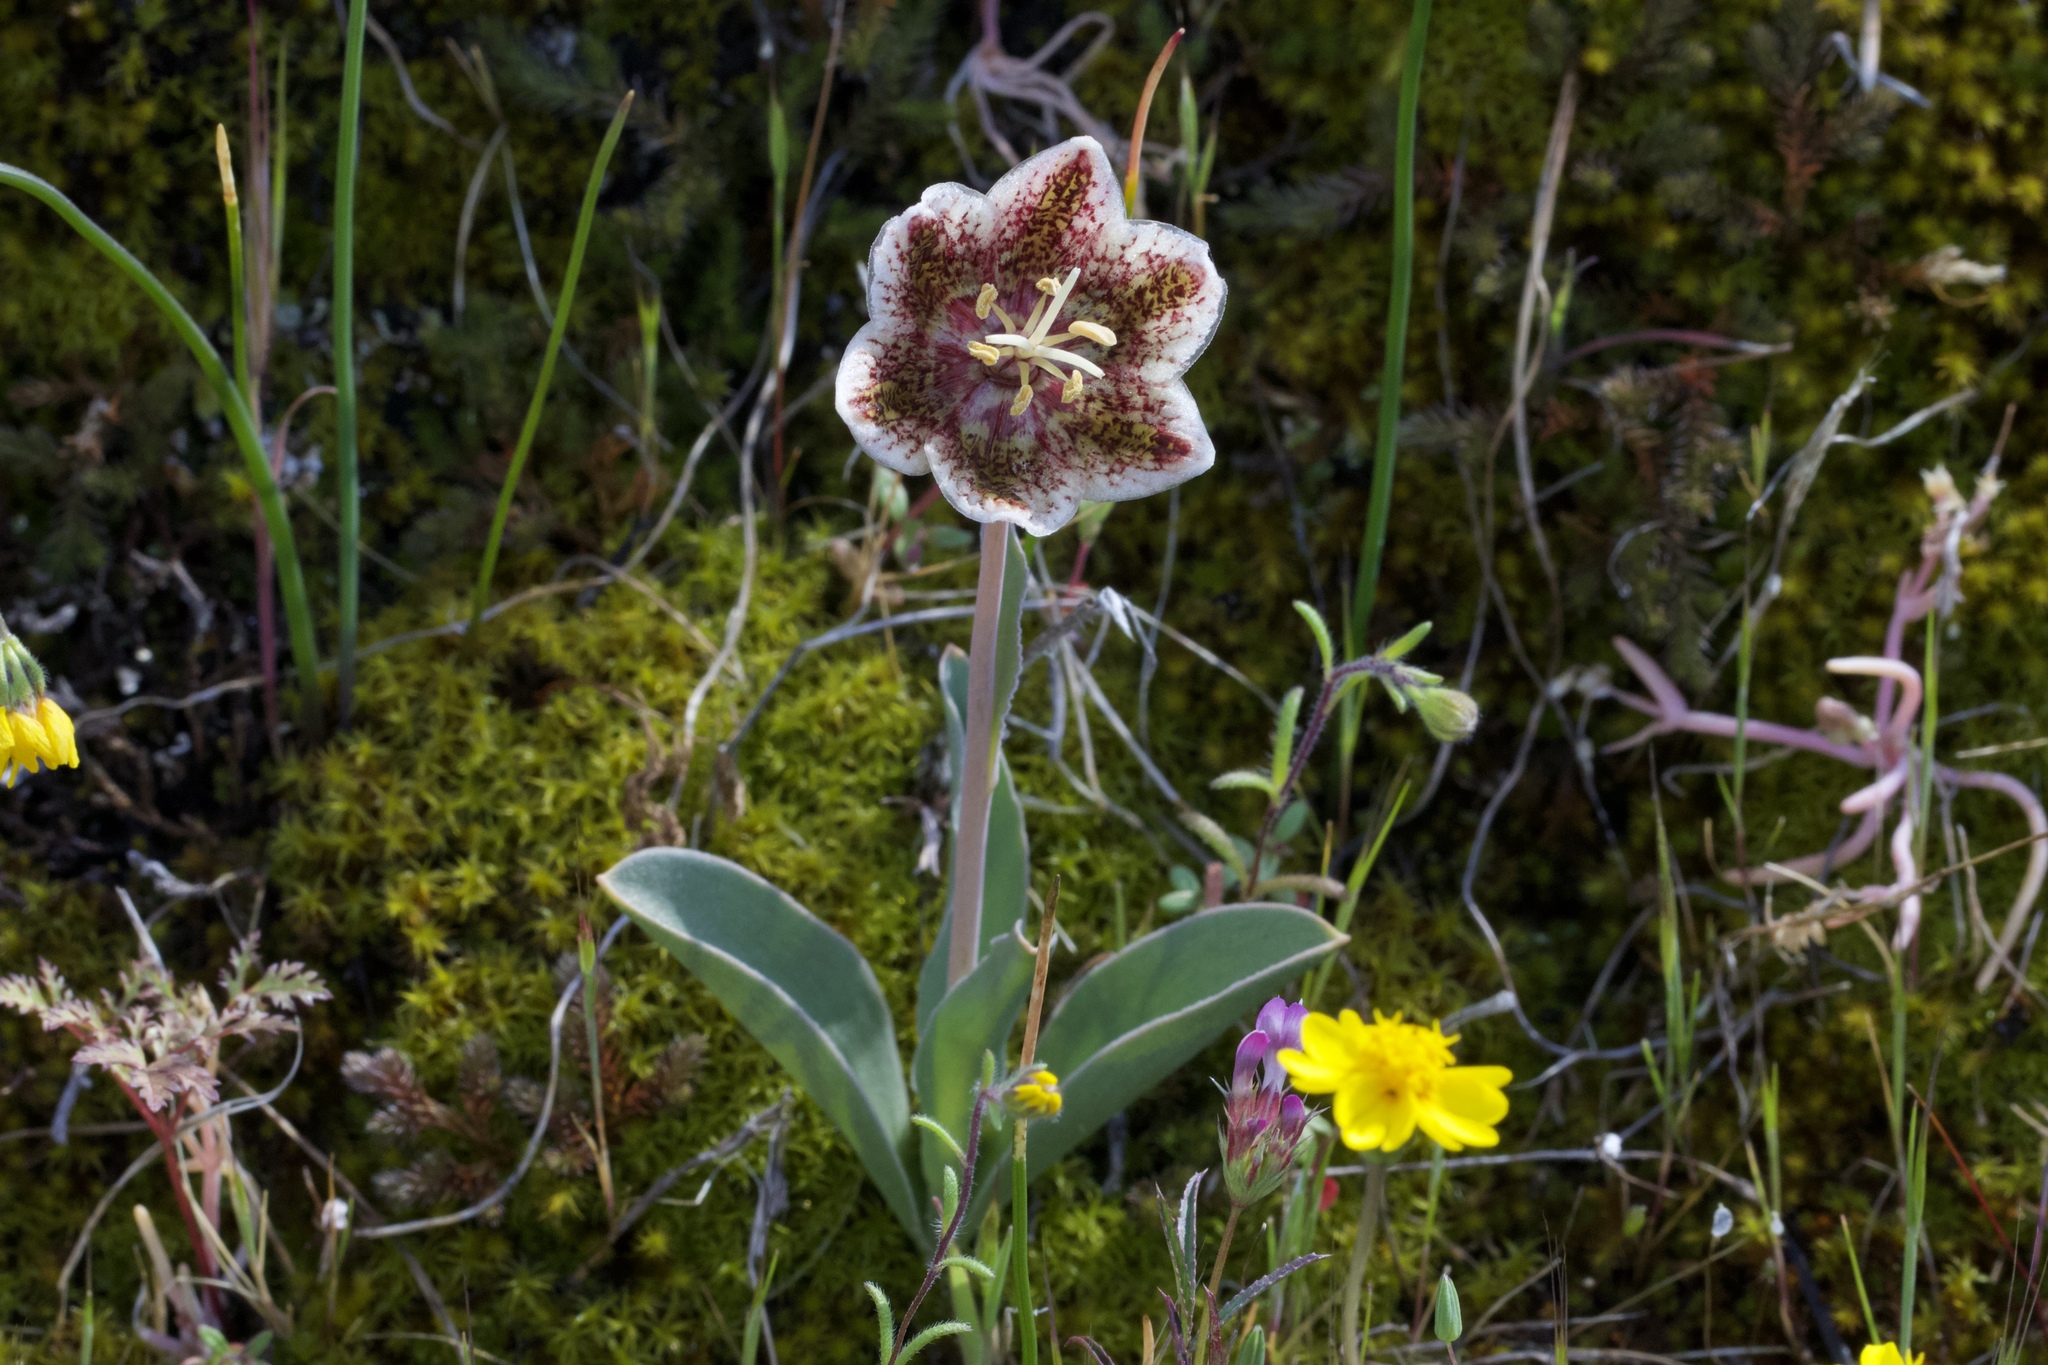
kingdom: Plantae
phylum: Tracheophyta
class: Liliopsida
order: Liliales
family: Liliaceae
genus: Fritillaria
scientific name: Fritillaria purdyi
